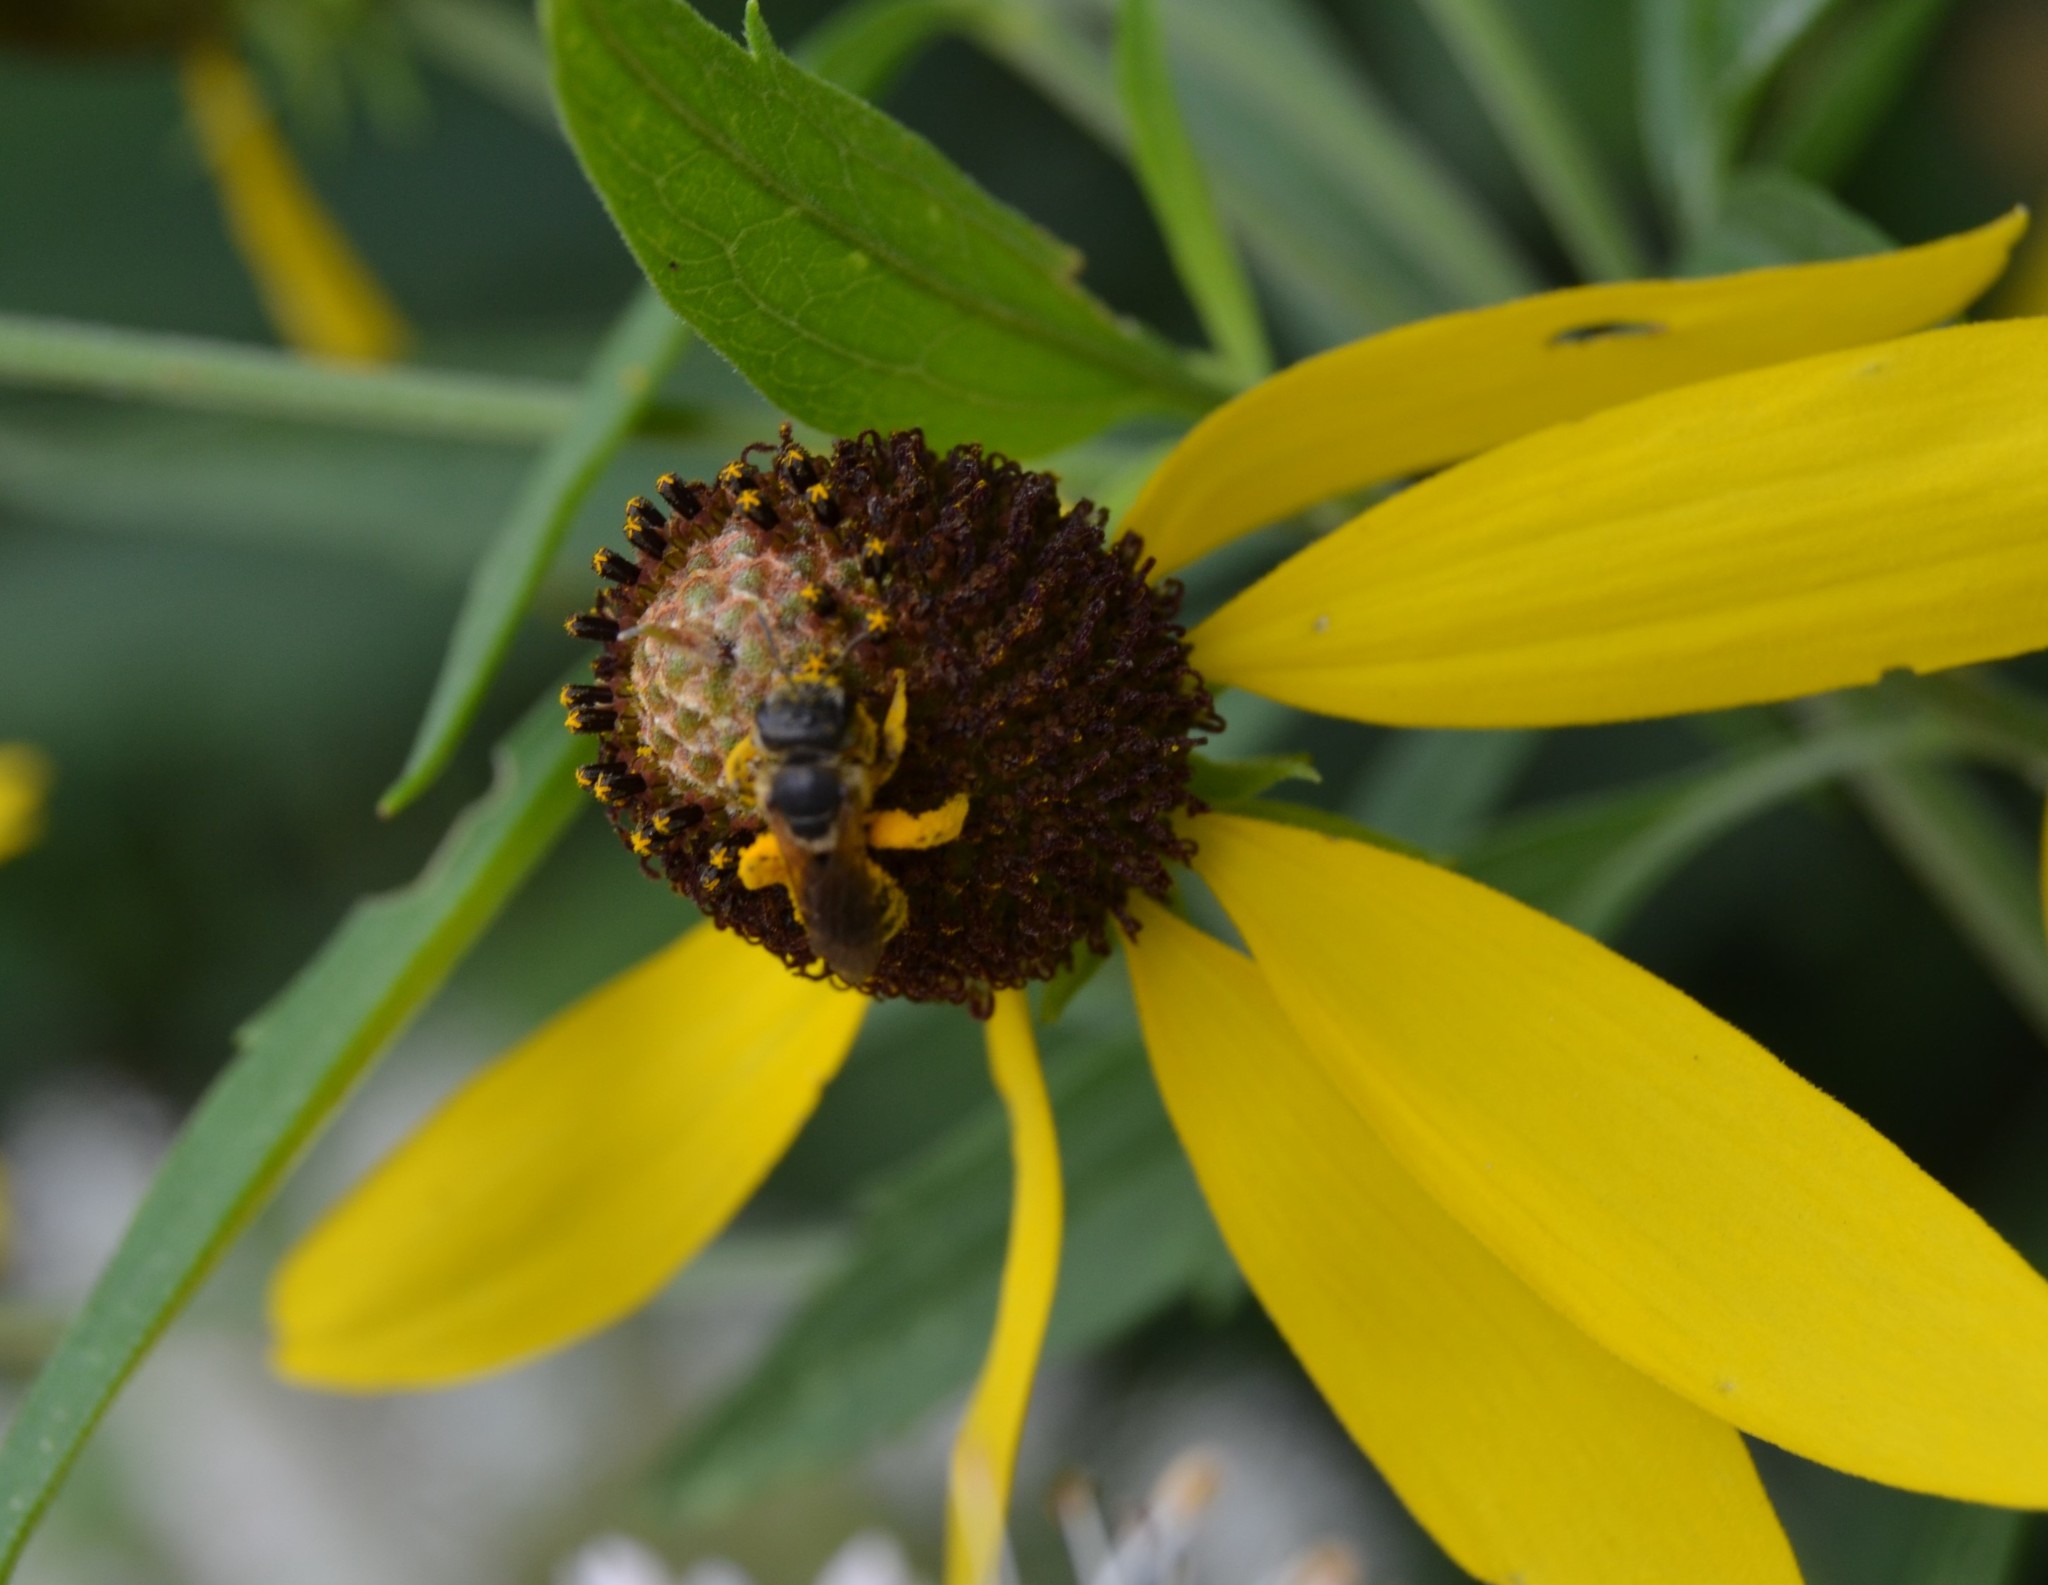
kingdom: Animalia
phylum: Arthropoda
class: Insecta
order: Hymenoptera
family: Halictidae
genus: Halictus
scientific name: Halictus ligatus
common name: Ligated furrow bee
